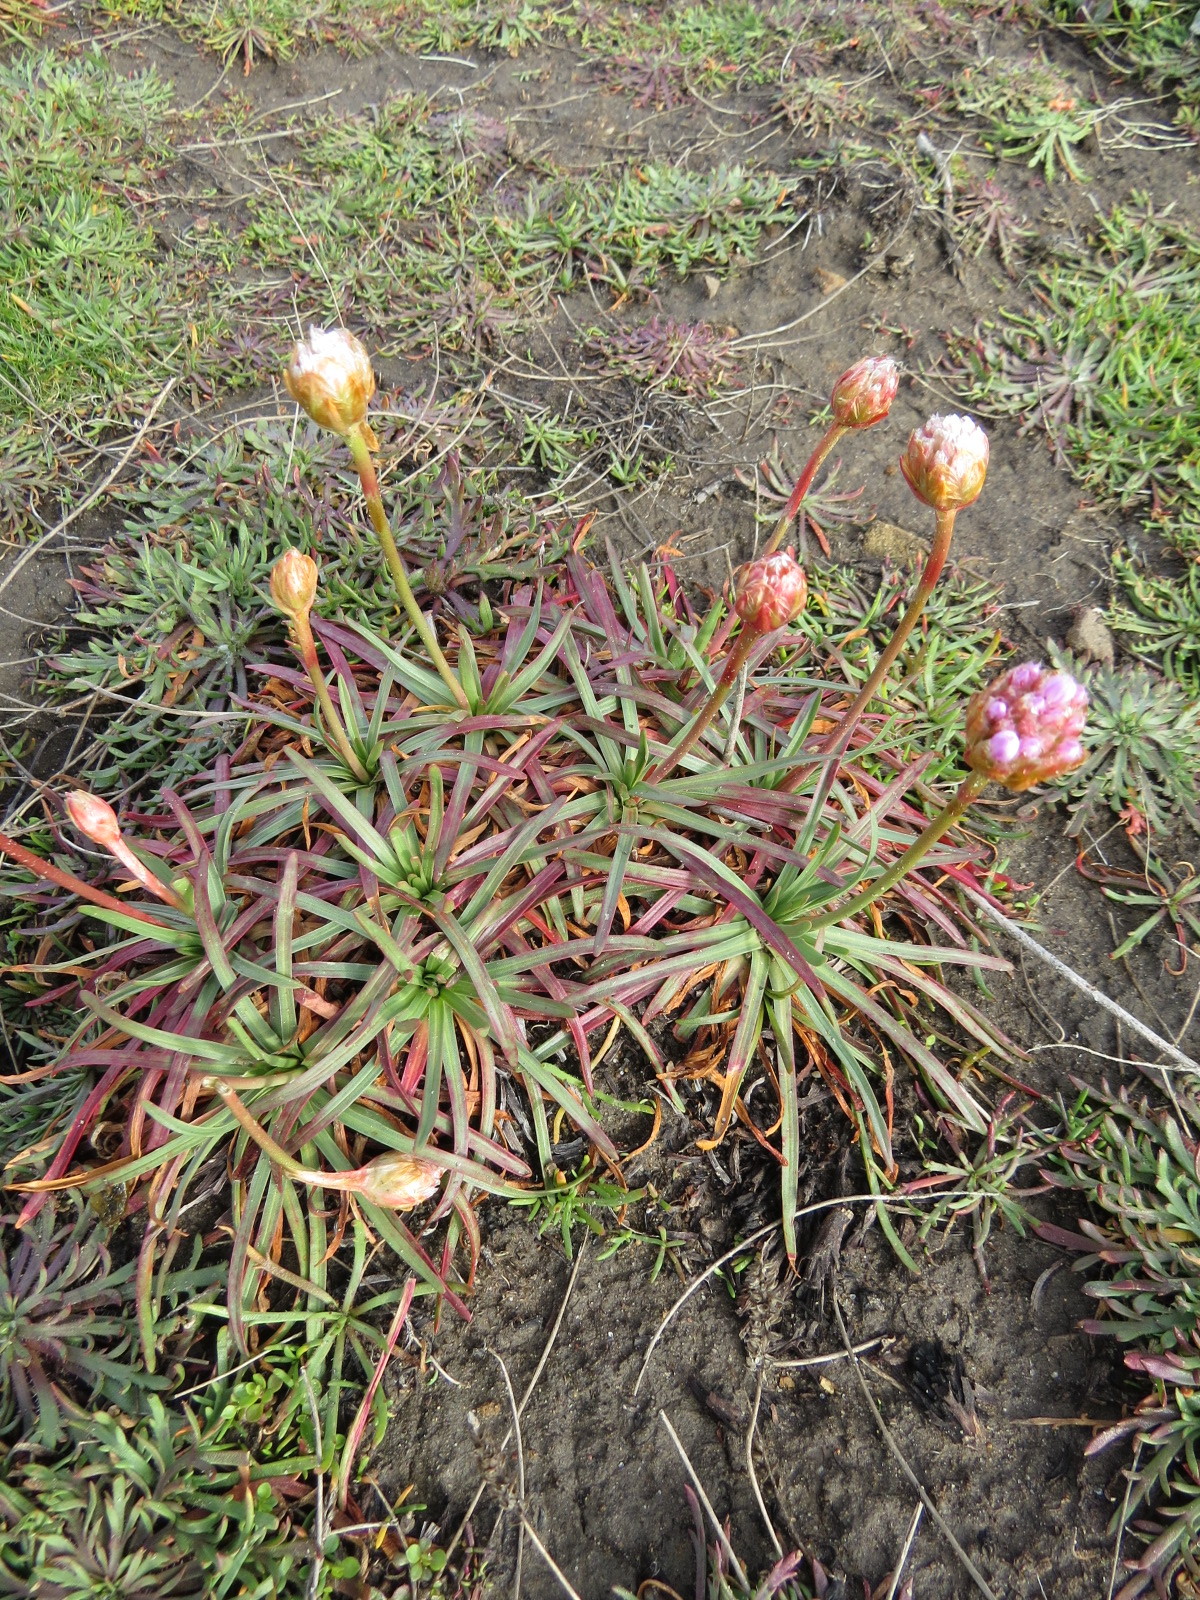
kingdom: Plantae
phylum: Tracheophyta
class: Magnoliopsida
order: Caryophyllales
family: Plumbaginaceae
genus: Armeria
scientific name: Armeria maritima
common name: Thrift
